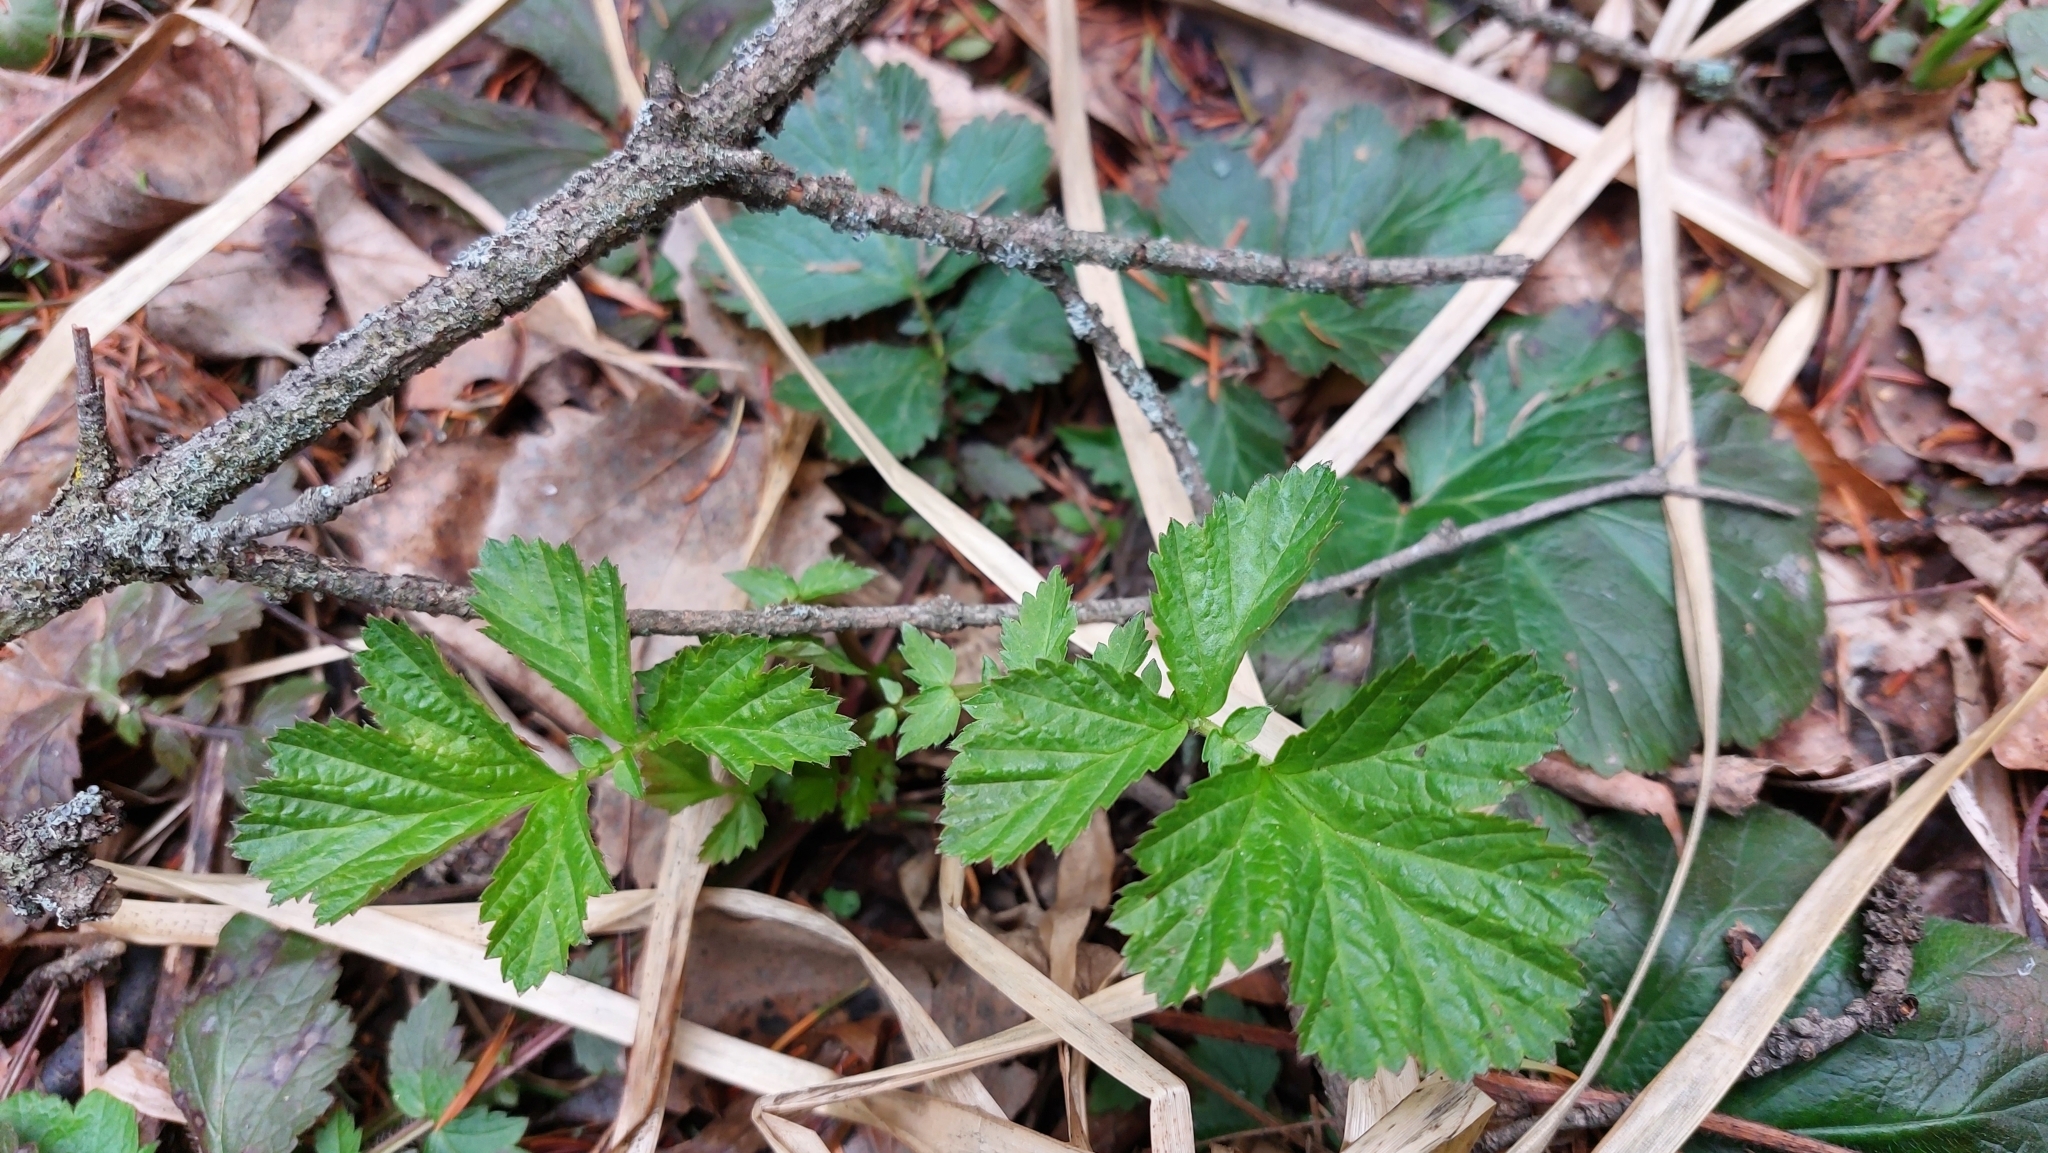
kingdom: Plantae
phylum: Tracheophyta
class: Magnoliopsida
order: Rosales
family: Rosaceae
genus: Geum
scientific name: Geum
